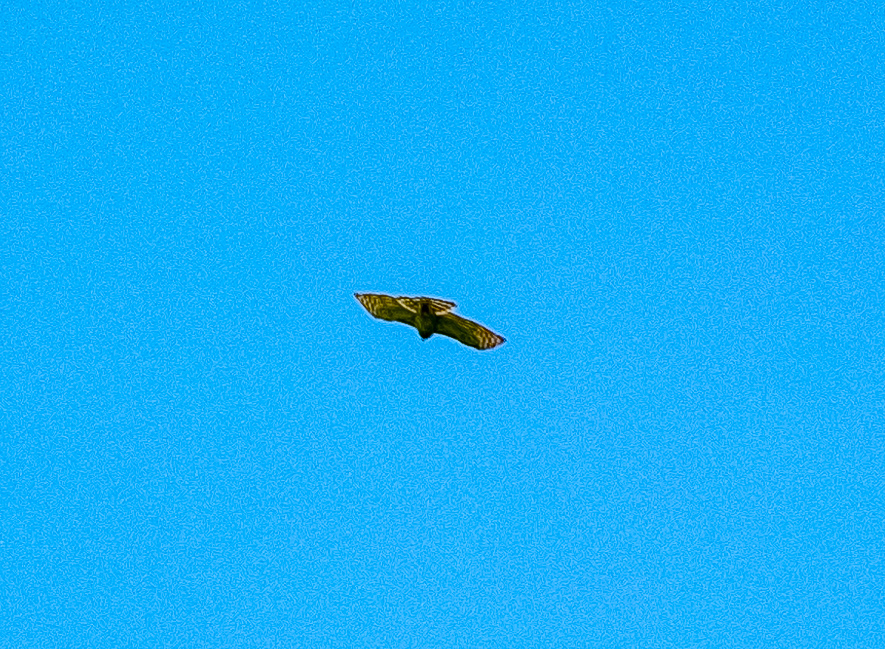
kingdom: Animalia
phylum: Chordata
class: Aves
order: Accipitriformes
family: Accipitridae
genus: Accipiter
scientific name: Accipiter trivirgatus
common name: Crested goshawk
